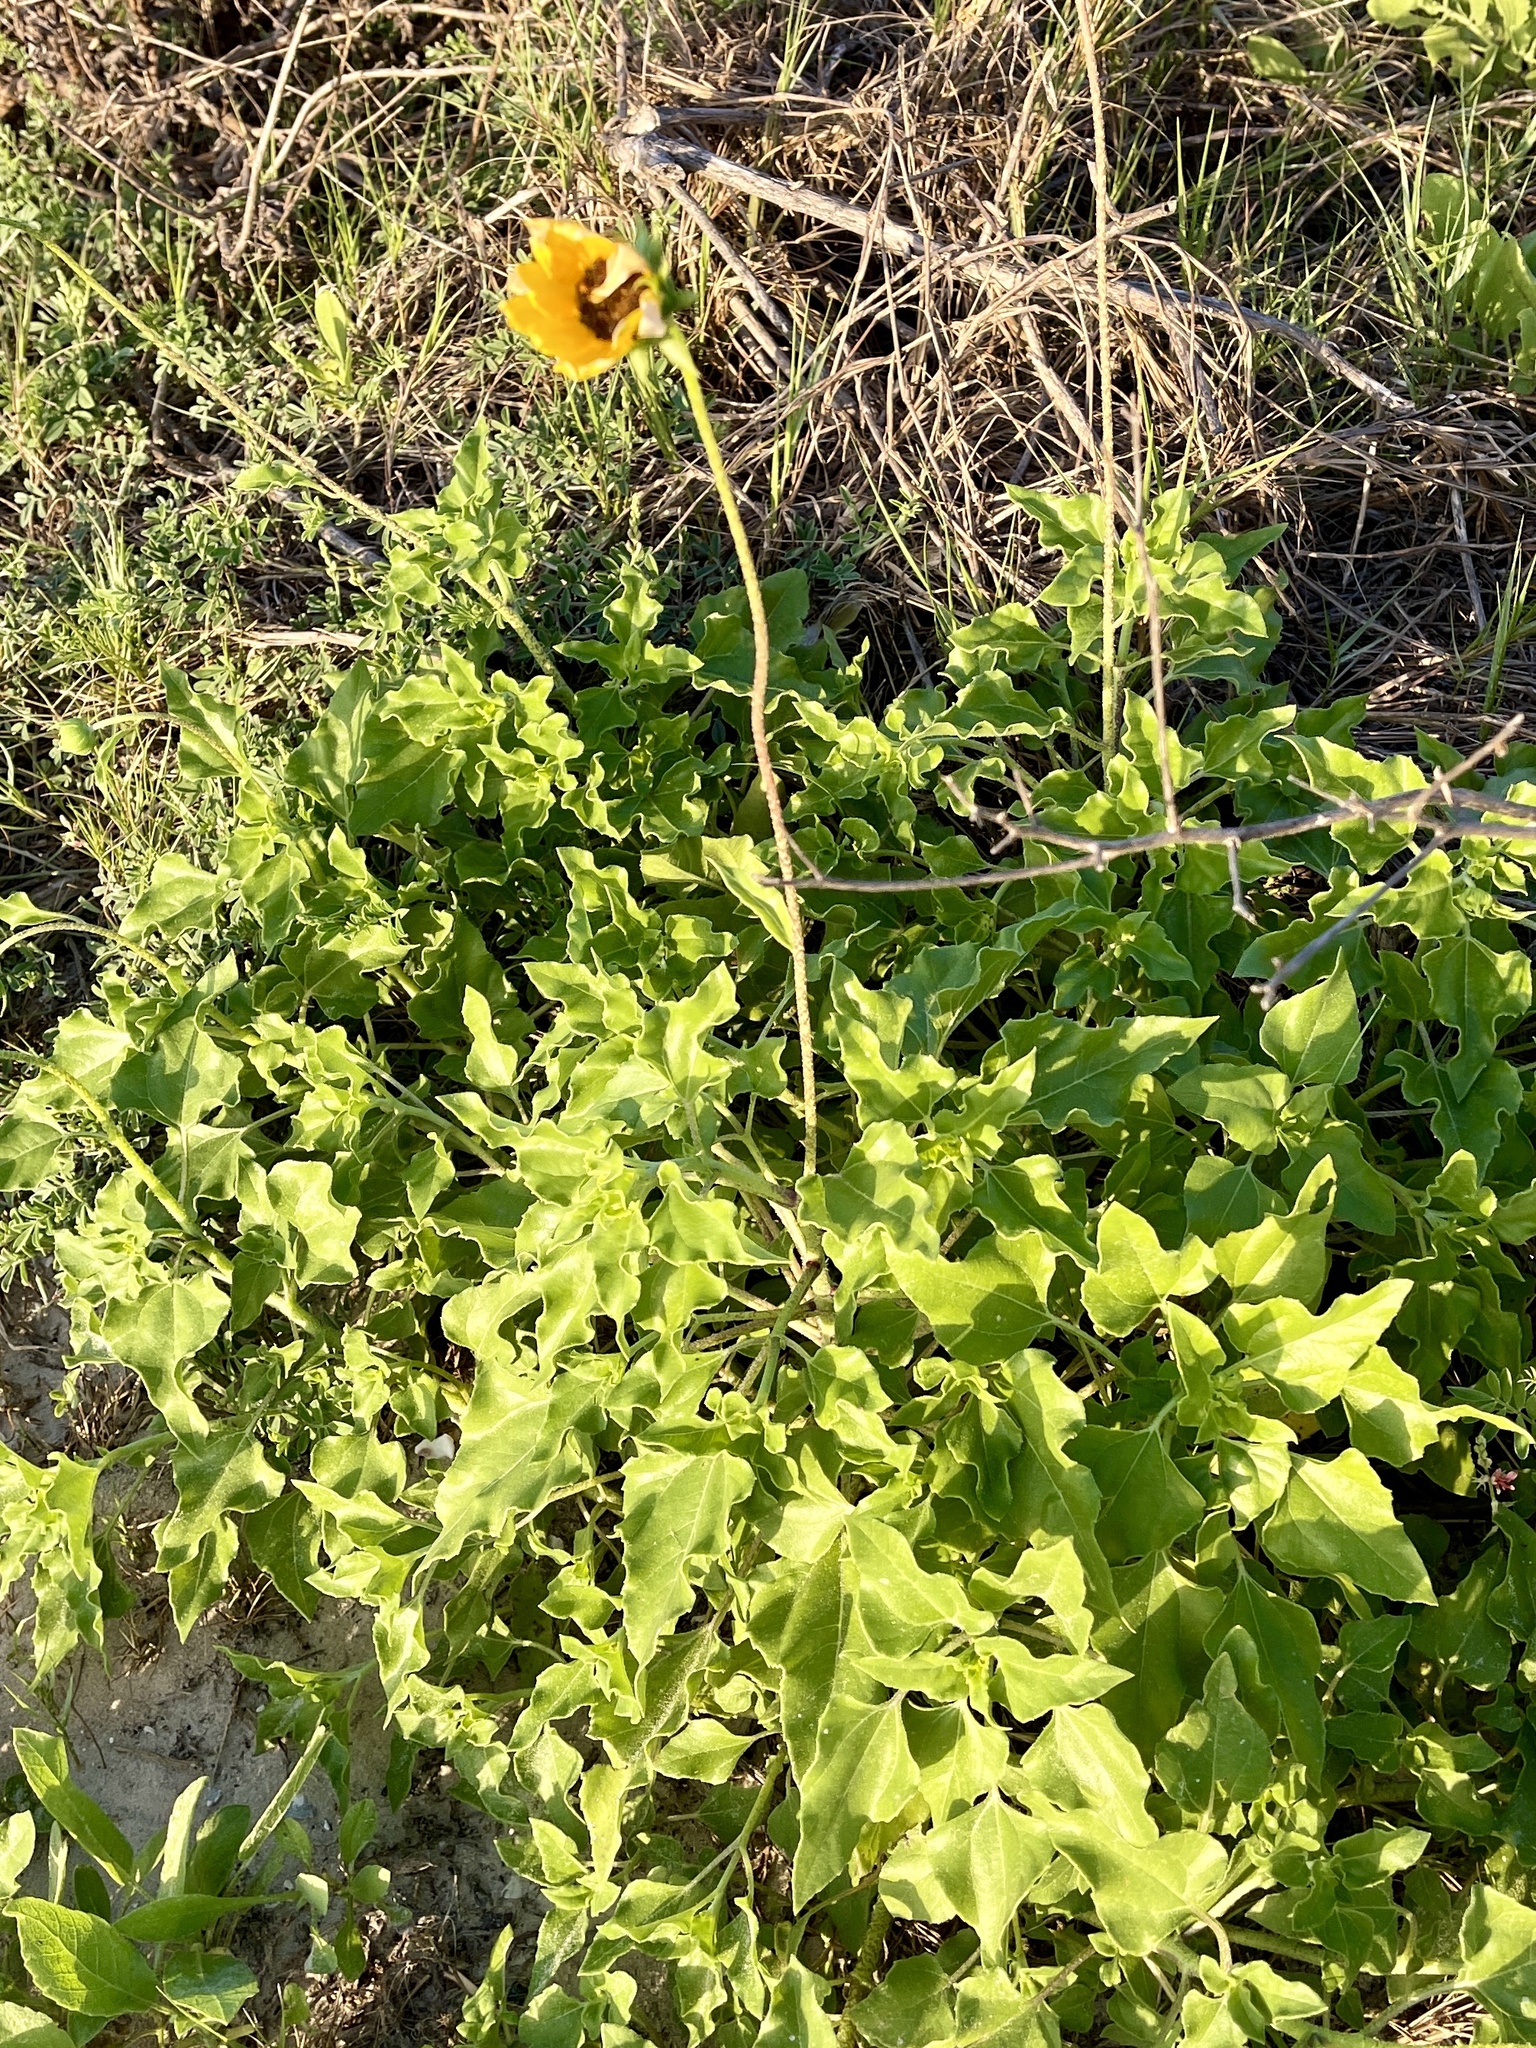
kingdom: Plantae
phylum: Tracheophyta
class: Magnoliopsida
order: Asterales
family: Asteraceae
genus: Helianthus
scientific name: Helianthus praecox
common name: Texas sunflower
